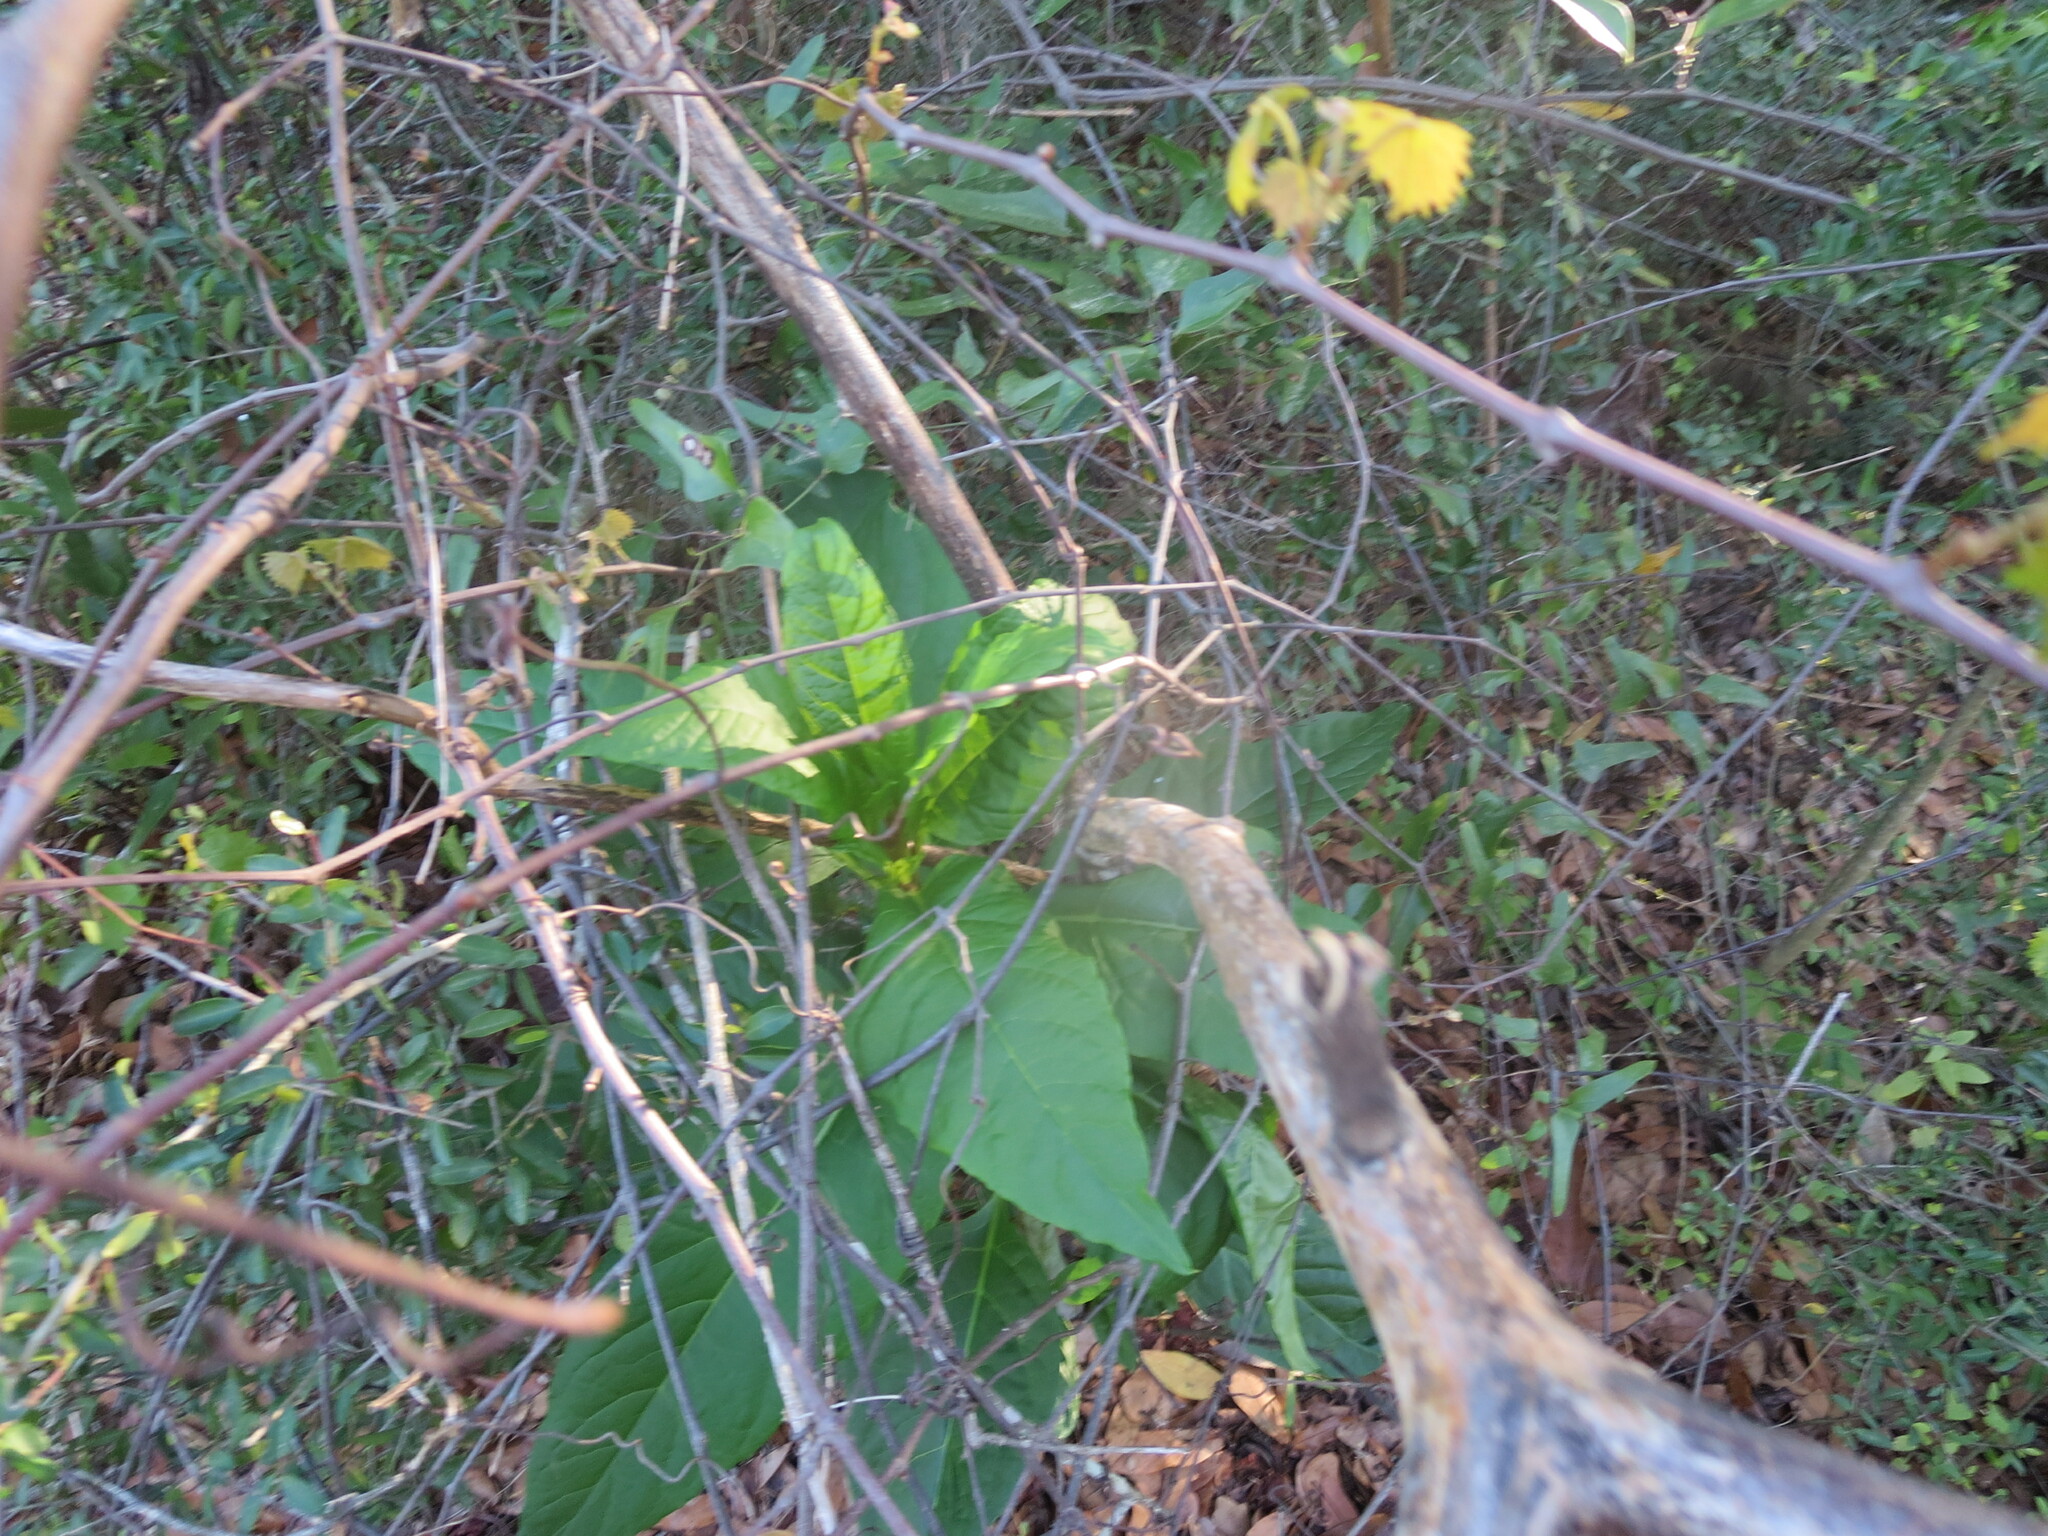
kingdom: Plantae
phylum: Tracheophyta
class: Magnoliopsida
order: Caryophyllales
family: Phytolaccaceae
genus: Phytolacca
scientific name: Phytolacca americana
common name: American pokeweed
